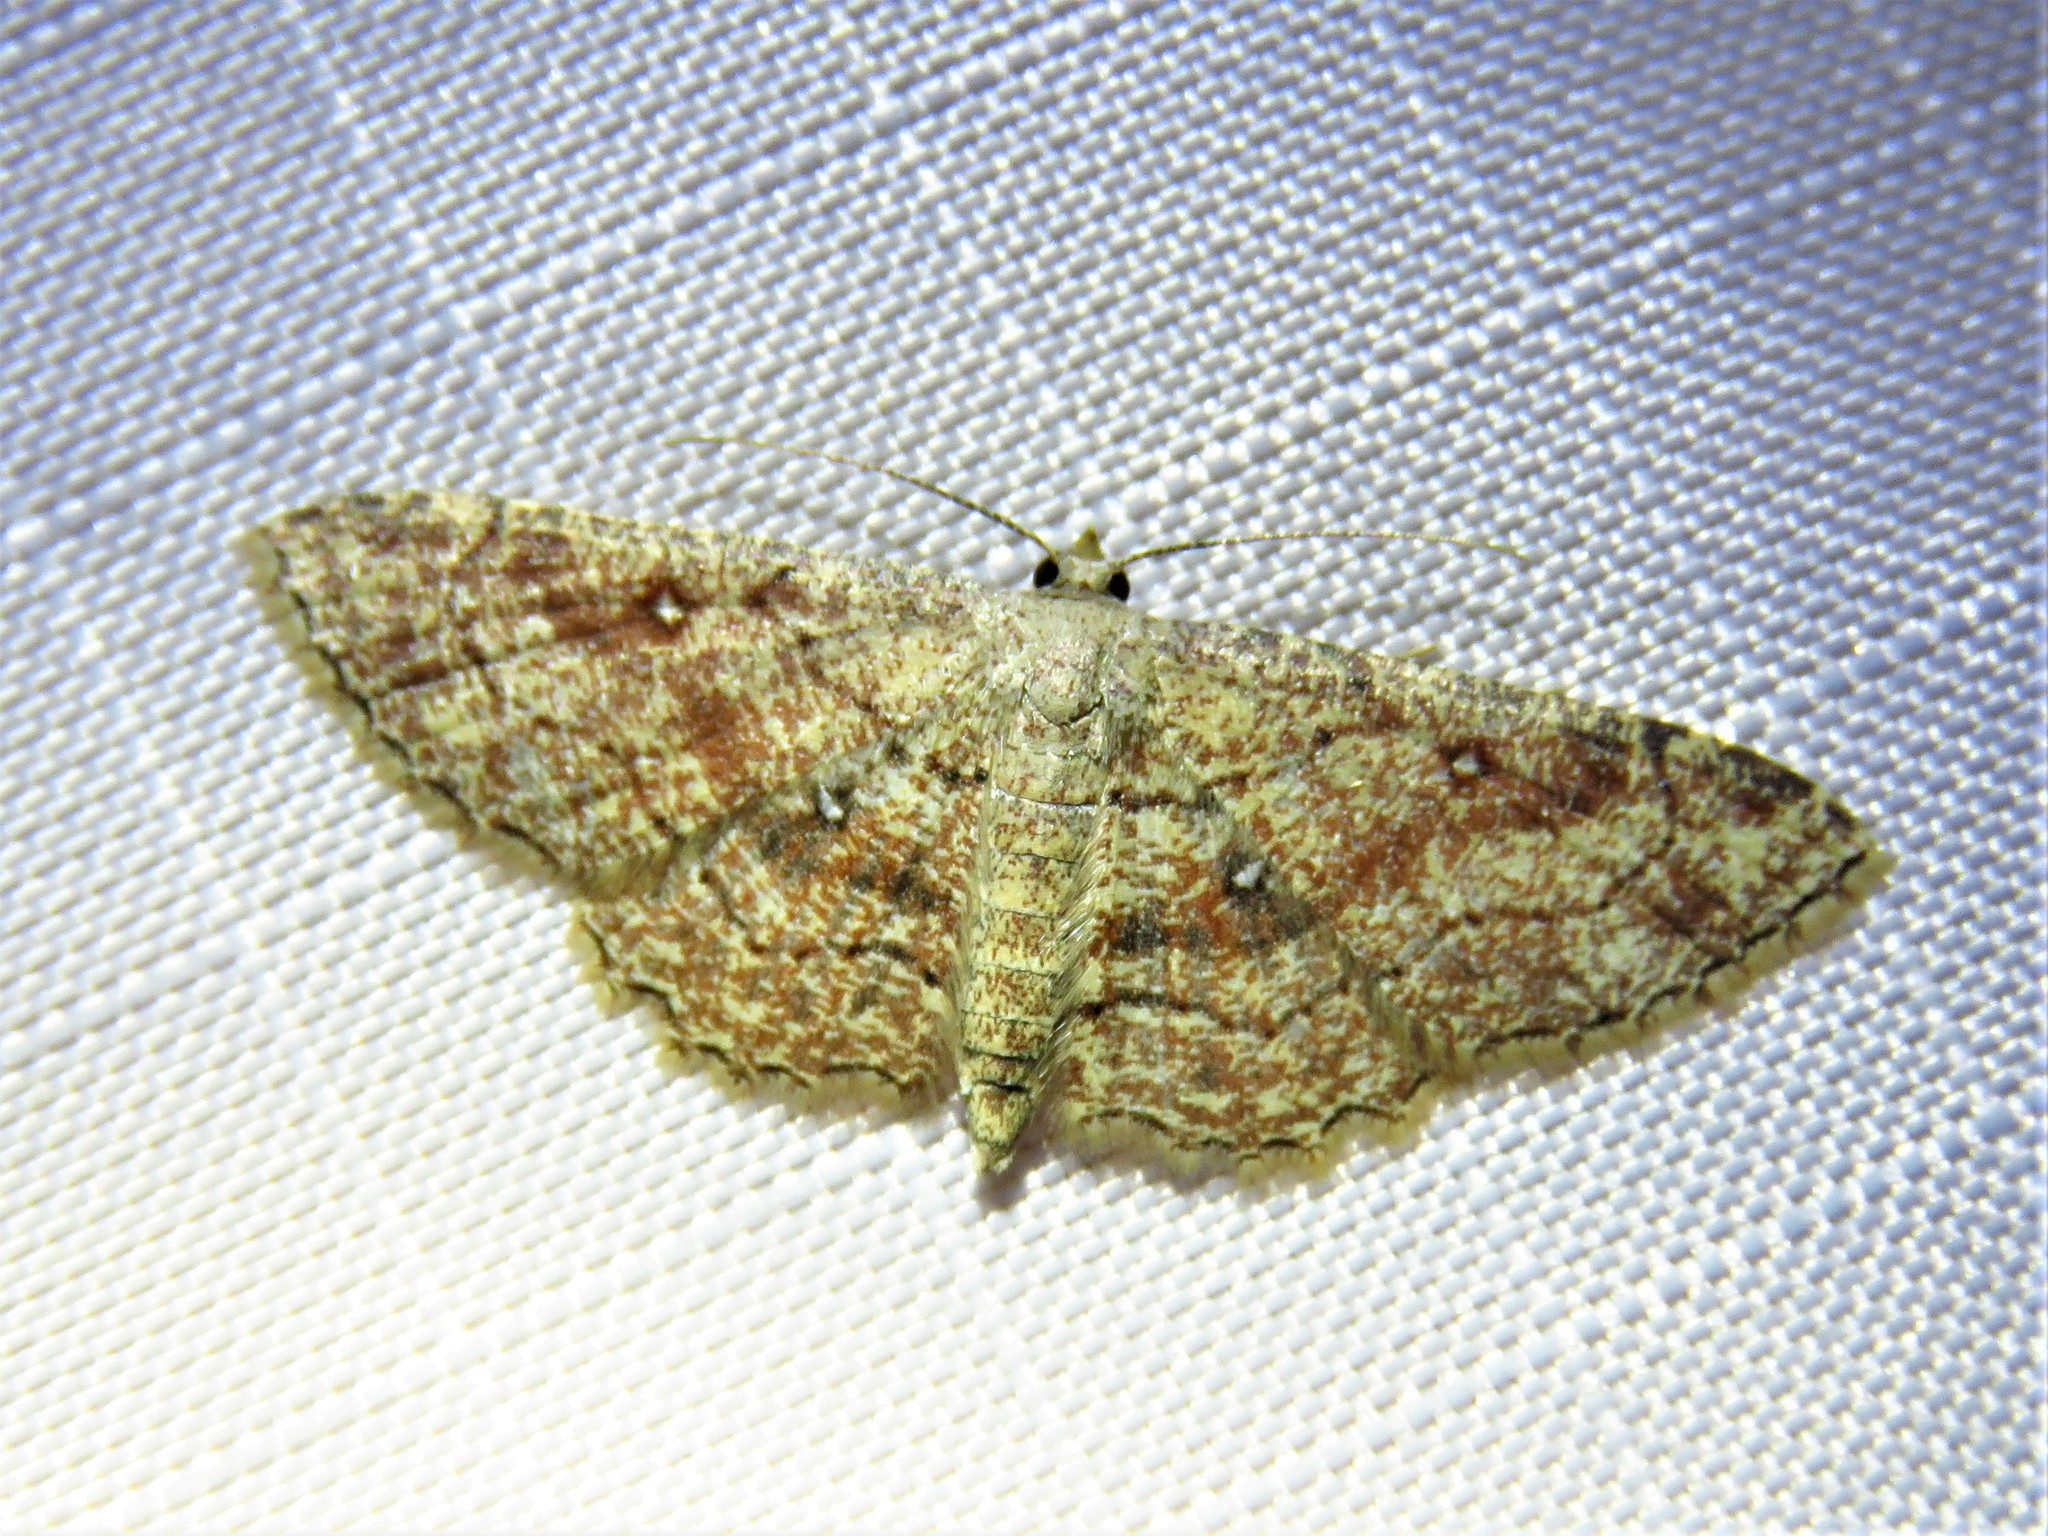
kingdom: Animalia
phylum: Arthropoda
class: Insecta
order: Lepidoptera
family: Geometridae
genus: Cyclophora
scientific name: Cyclophora nanaria
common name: Cankerworm
